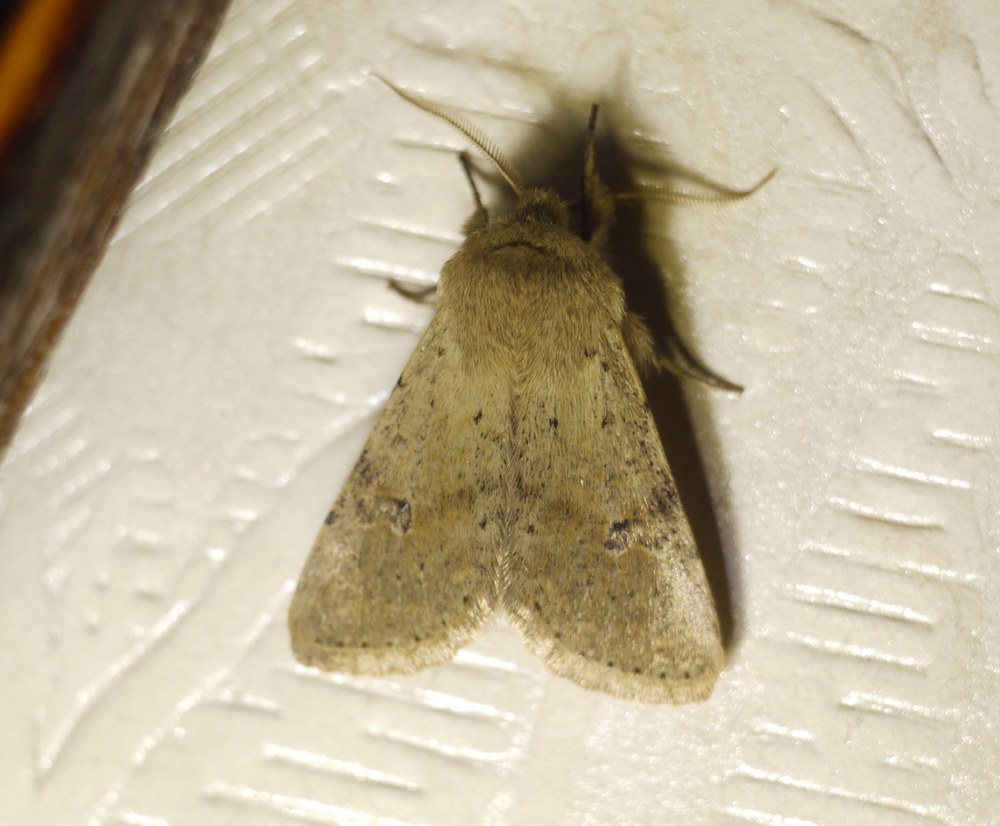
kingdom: Animalia
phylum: Arthropoda
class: Insecta
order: Lepidoptera
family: Noctuidae
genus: Orthosia
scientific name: Orthosia cruda
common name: Small quaker
